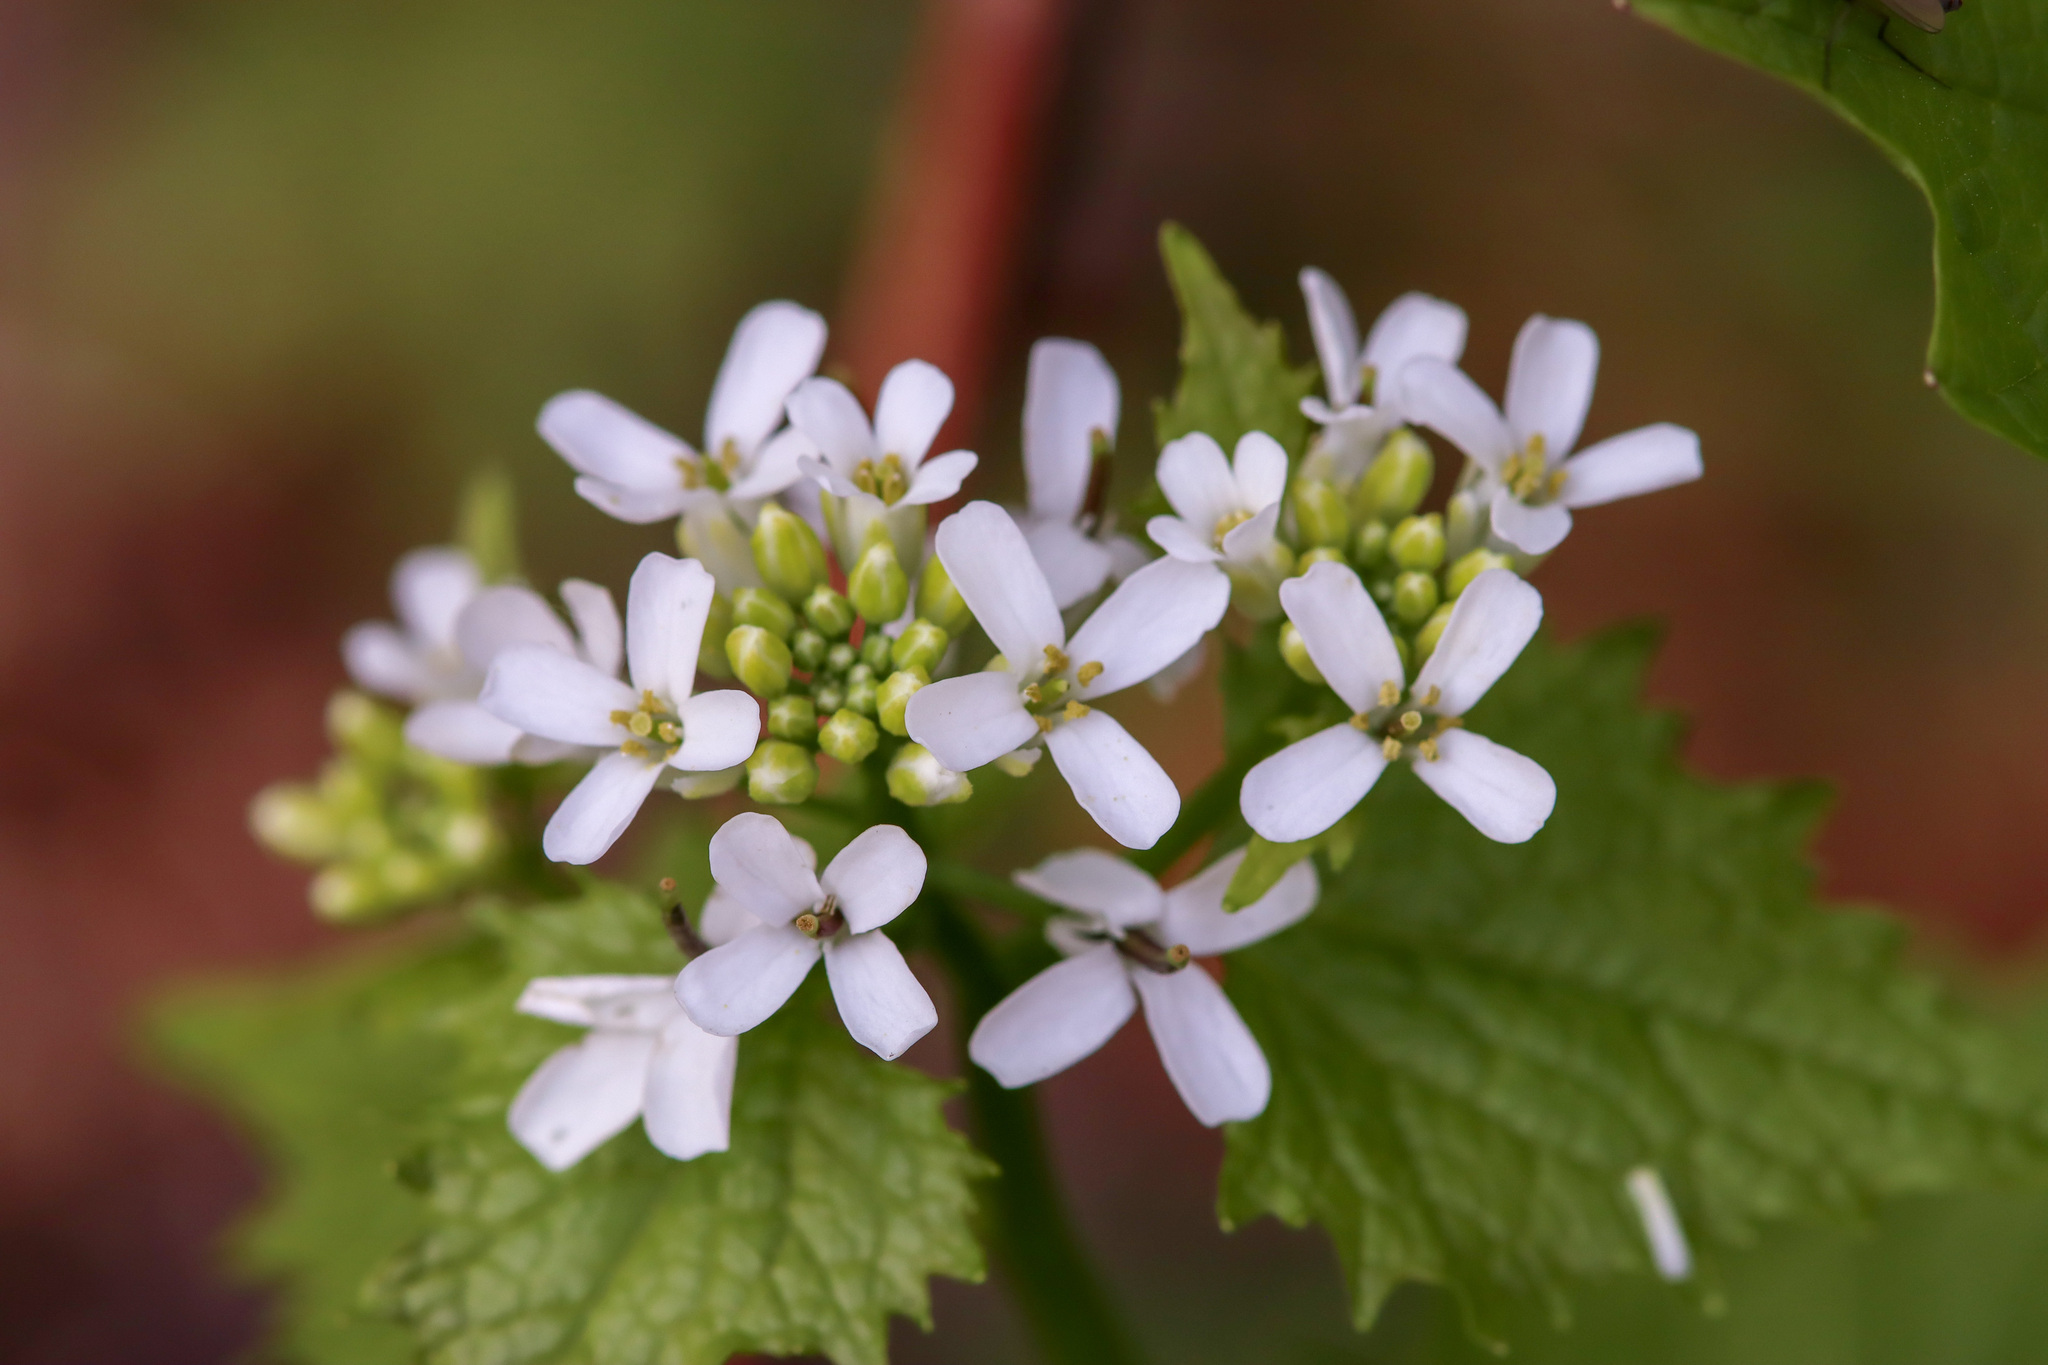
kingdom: Plantae
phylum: Tracheophyta
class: Magnoliopsida
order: Brassicales
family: Brassicaceae
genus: Alliaria
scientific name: Alliaria petiolata
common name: Garlic mustard
